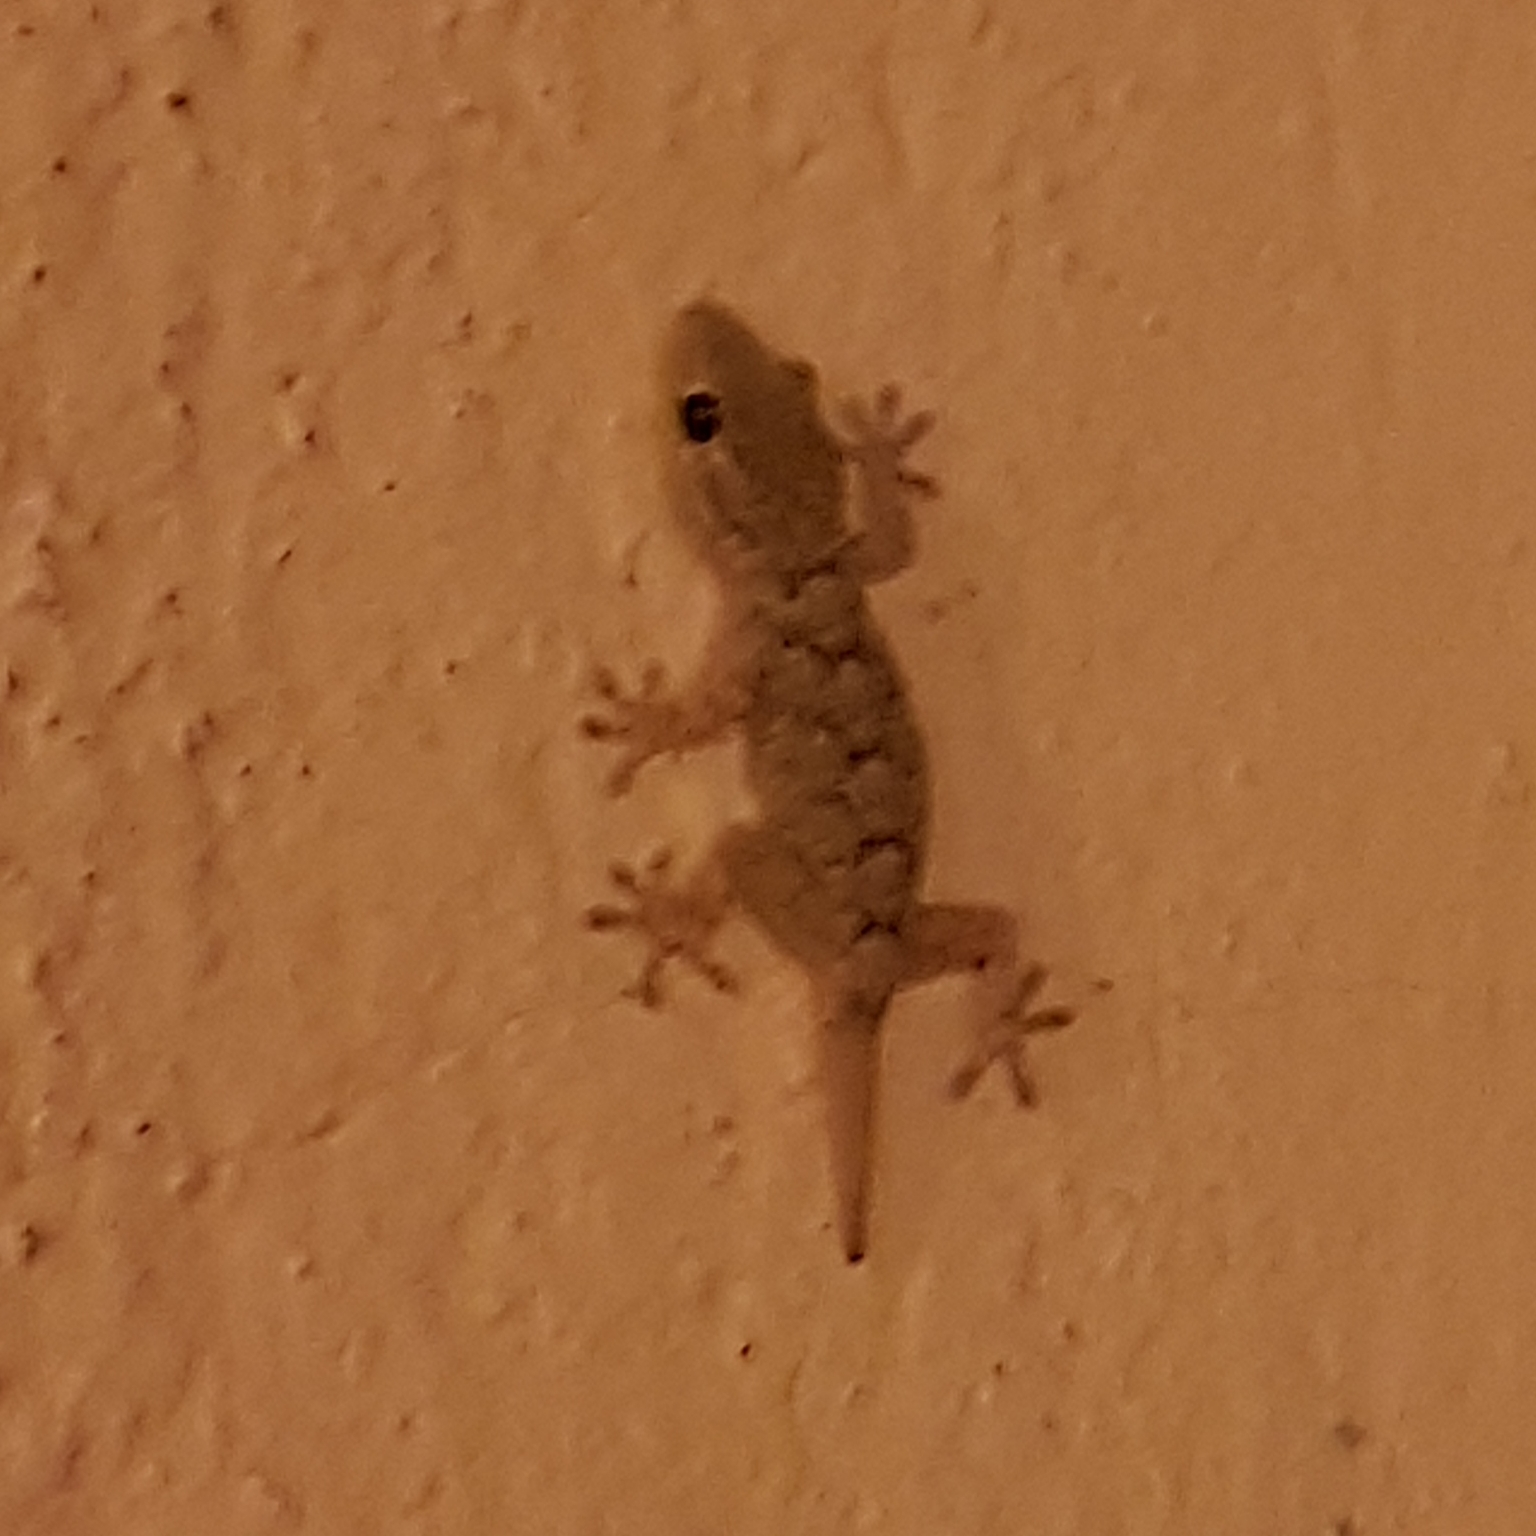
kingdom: Animalia
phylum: Chordata
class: Squamata
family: Phyllodactylidae
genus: Tarentola
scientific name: Tarentola mauritanica
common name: Moorish gecko
